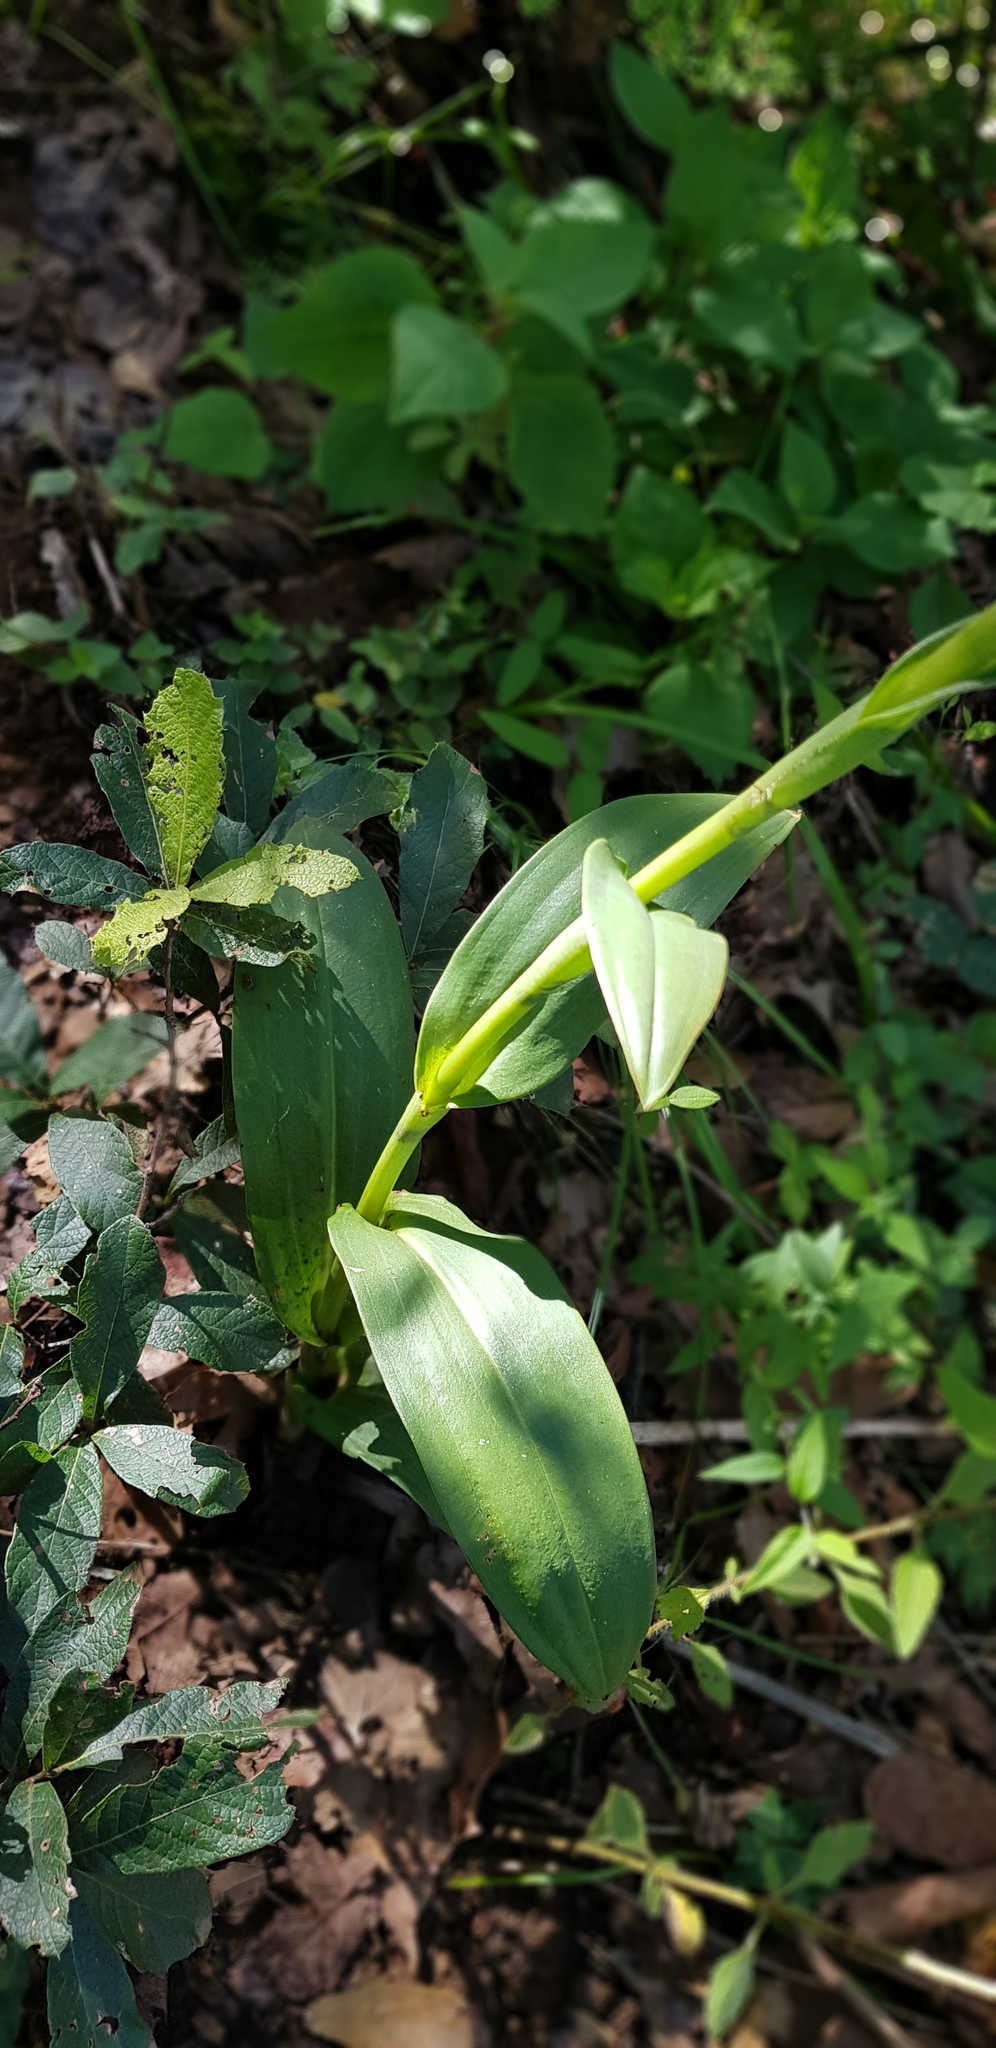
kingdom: Plantae
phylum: Tracheophyta
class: Liliopsida
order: Asparagales
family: Orchidaceae
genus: Dichromanthus
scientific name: Dichromanthus aurantiacus
